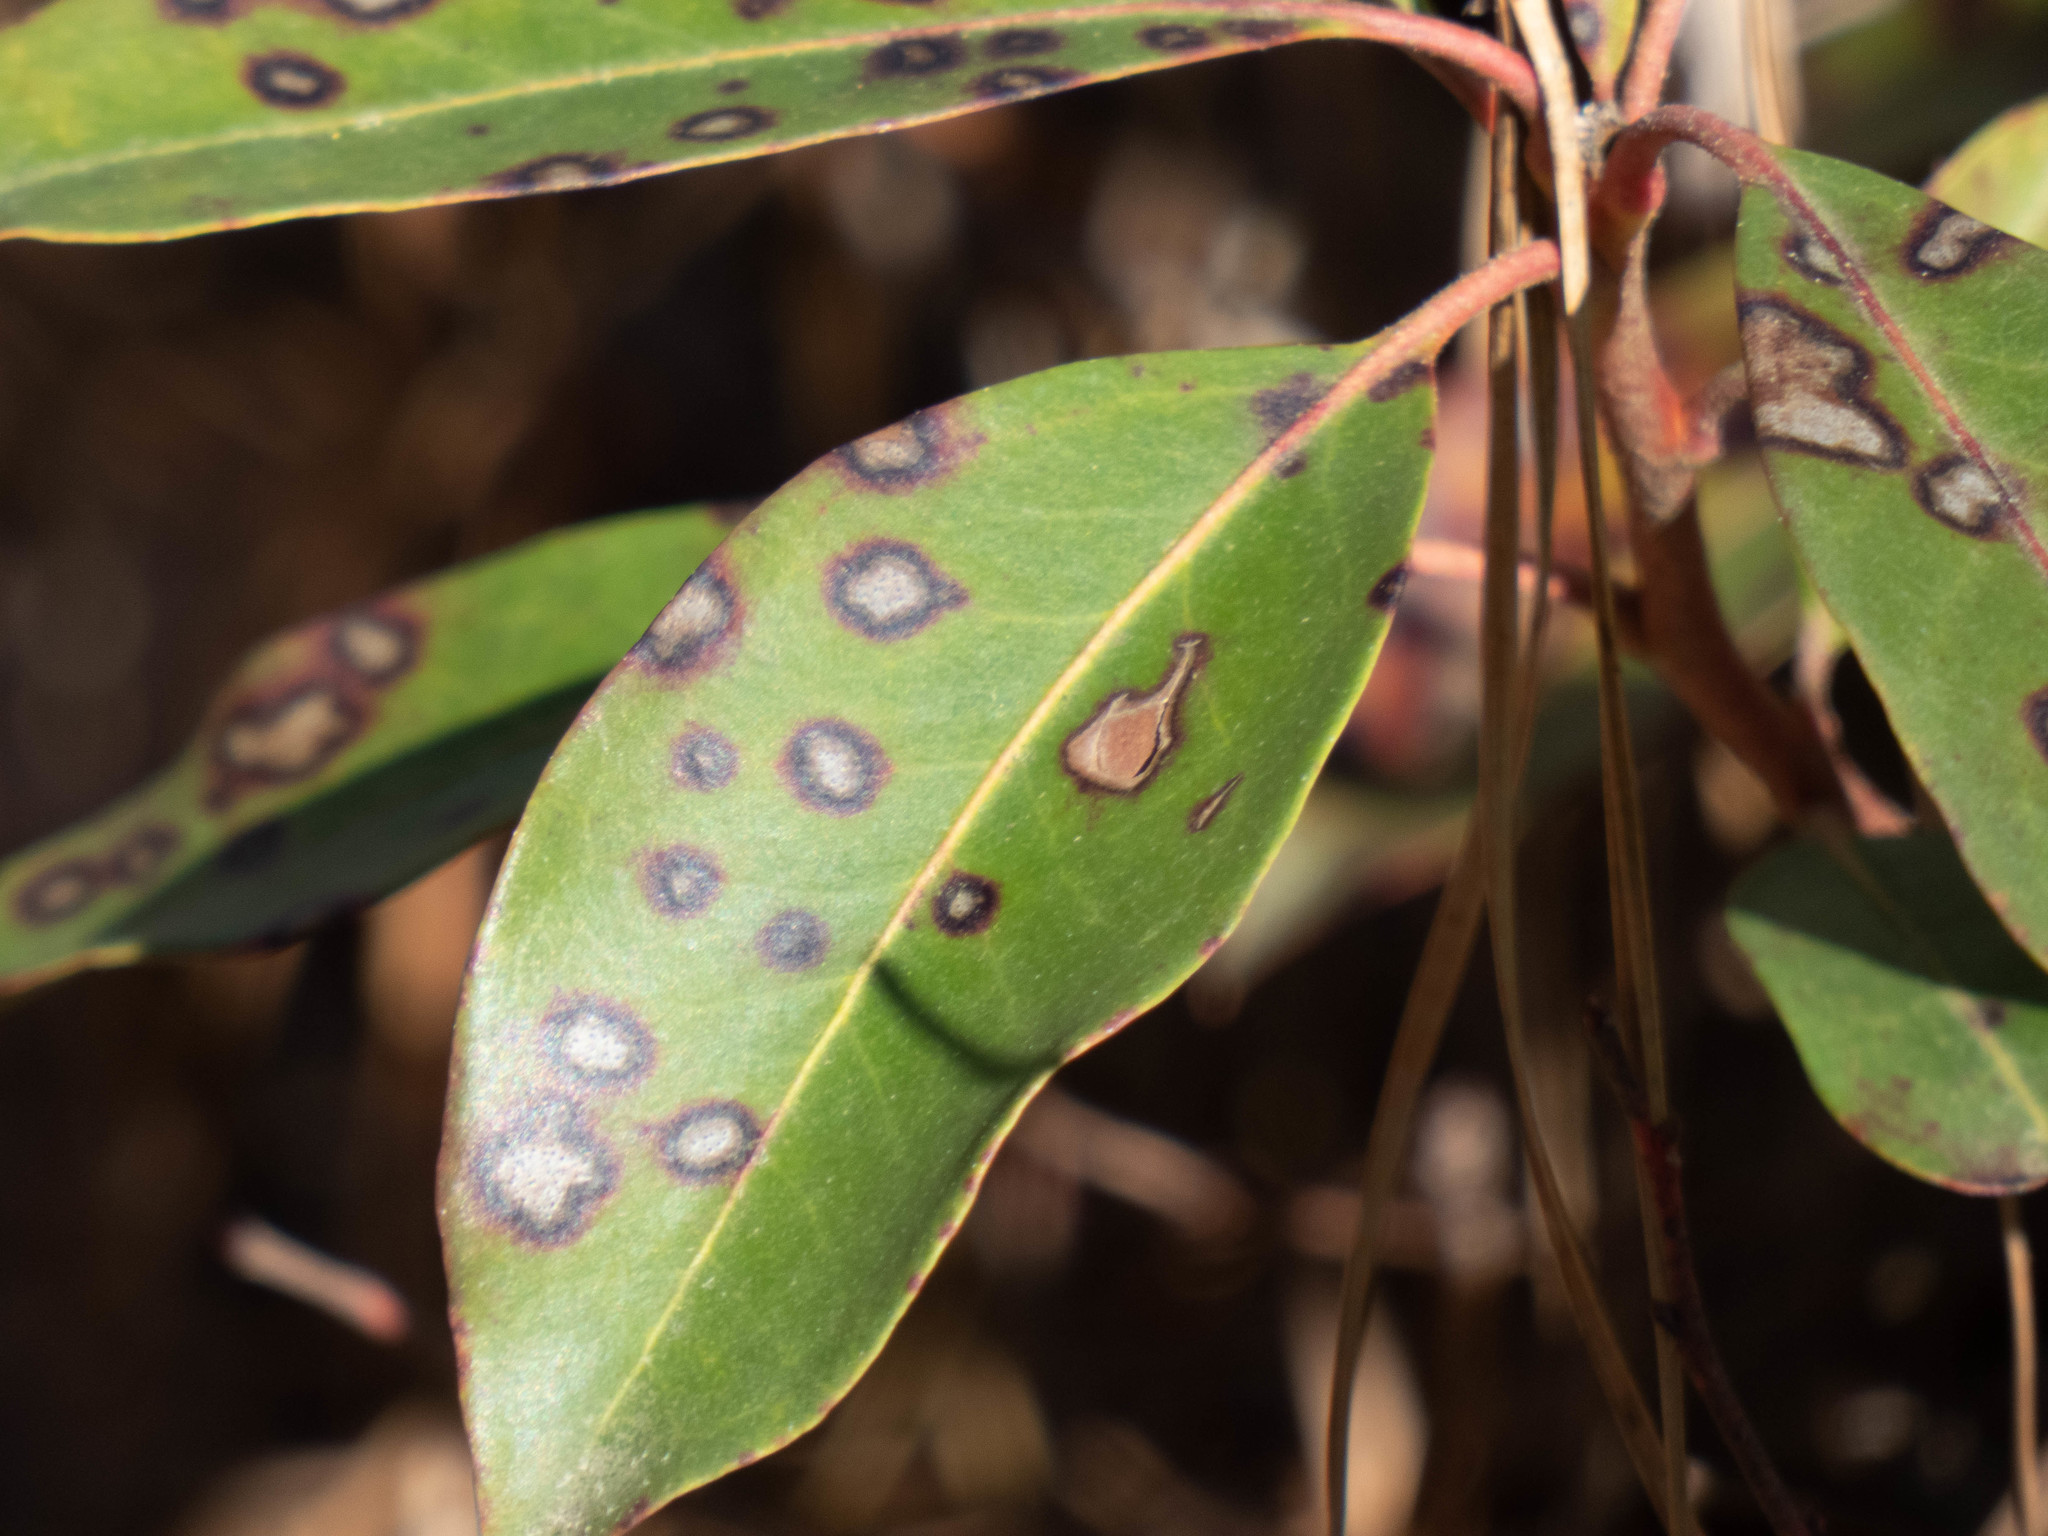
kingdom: Fungi
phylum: Ascomycota
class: Dothideomycetes
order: Mycosphaerellales
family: Mycosphaerellaceae
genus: Mycosphaerella
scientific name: Mycosphaerella colorata
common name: Mountain laurel leaf spot
